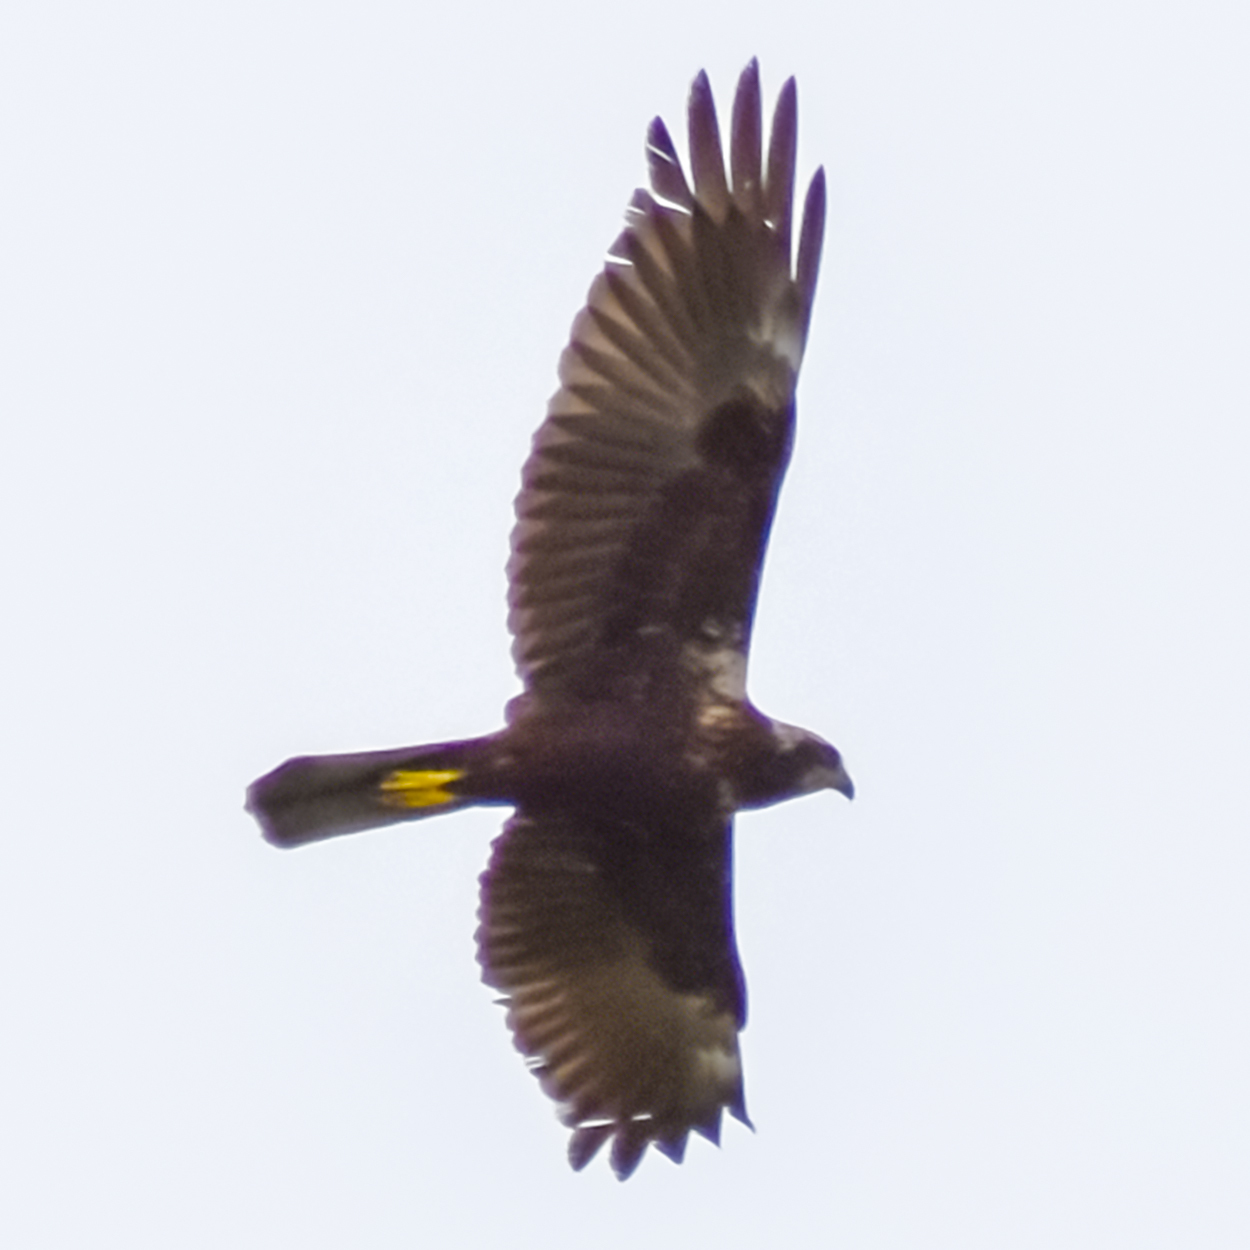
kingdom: Animalia
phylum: Chordata
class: Aves
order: Accipitriformes
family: Accipitridae
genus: Circus
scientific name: Circus aeruginosus
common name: Western marsh harrier
